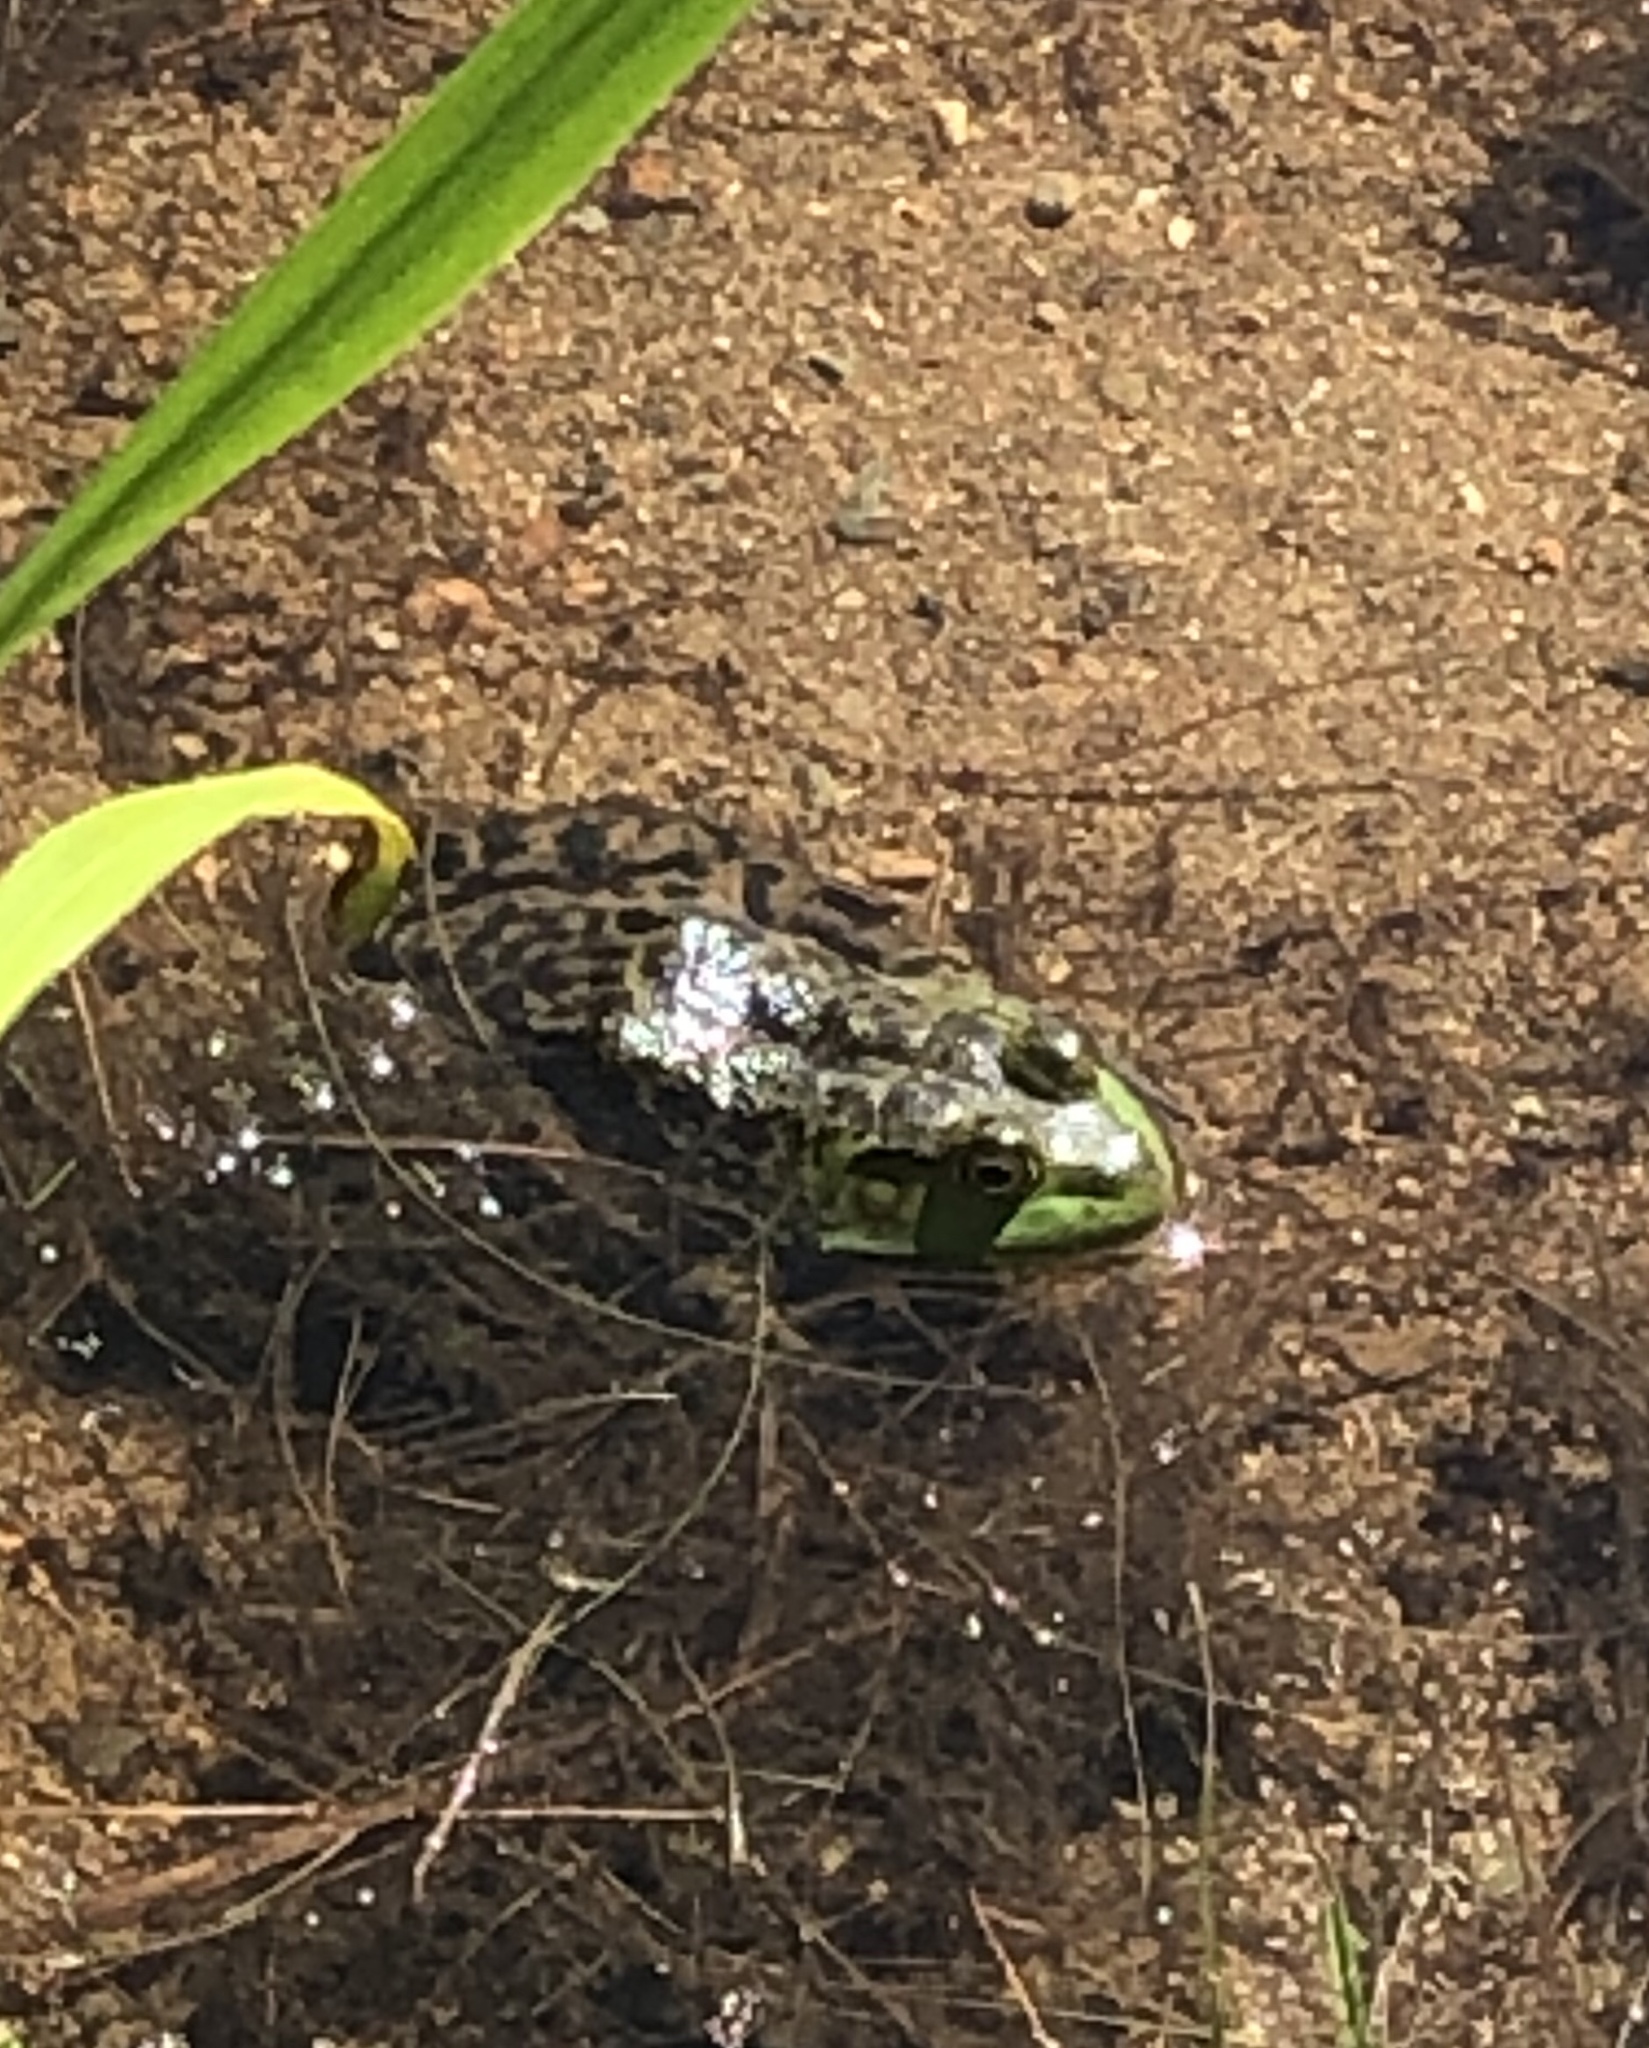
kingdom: Animalia
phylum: Chordata
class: Amphibia
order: Anura
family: Ranidae
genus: Lithobates
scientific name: Lithobates catesbeianus
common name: American bullfrog
